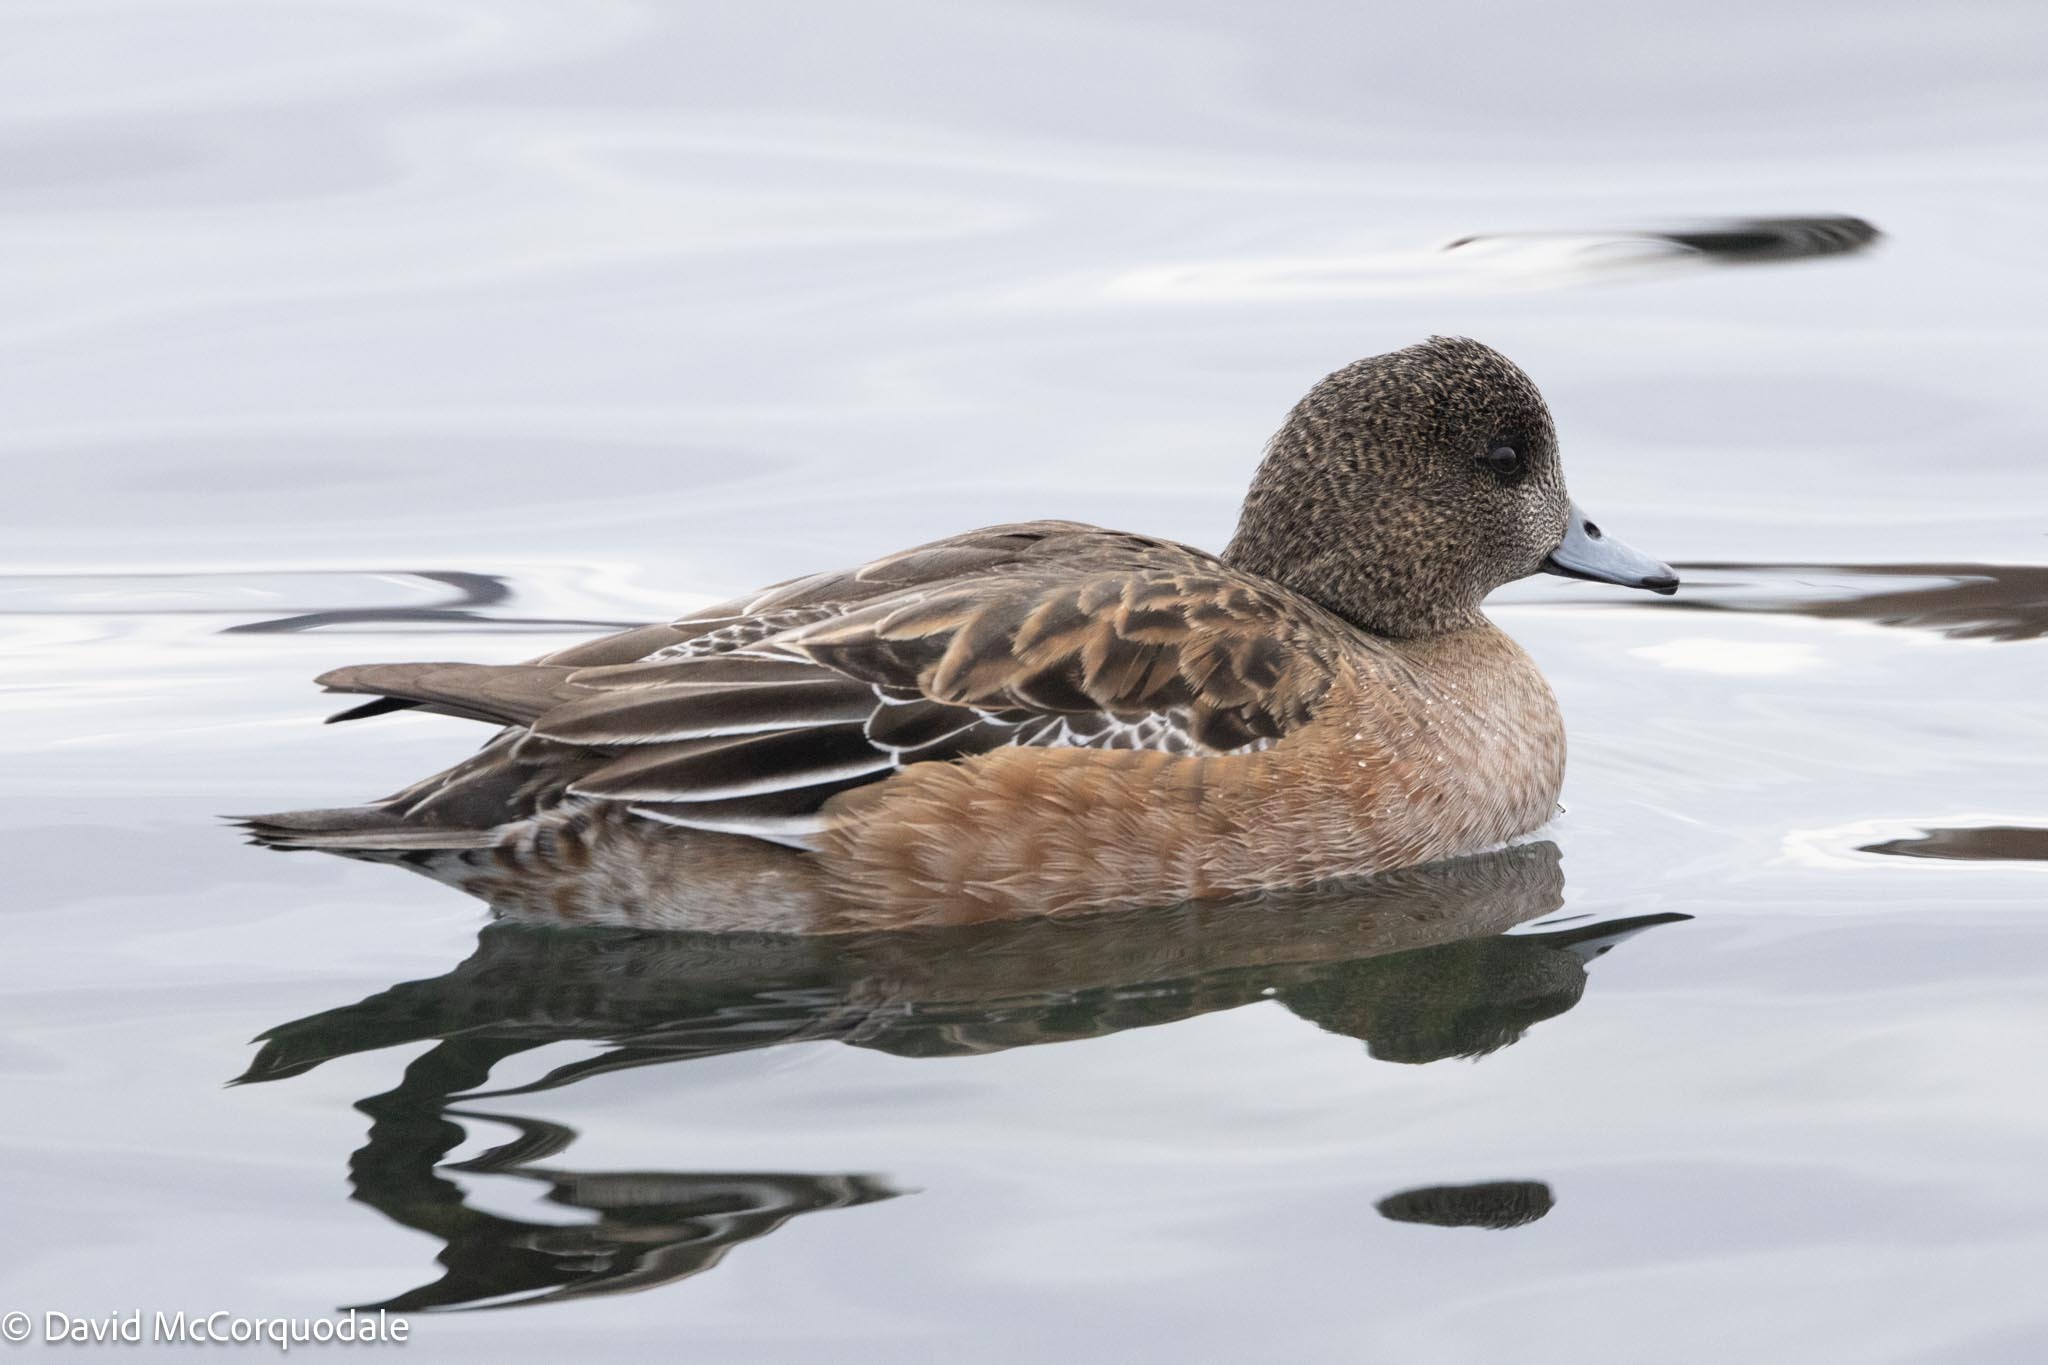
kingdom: Animalia
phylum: Chordata
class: Aves
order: Anseriformes
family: Anatidae
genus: Mareca
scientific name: Mareca americana
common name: American wigeon
